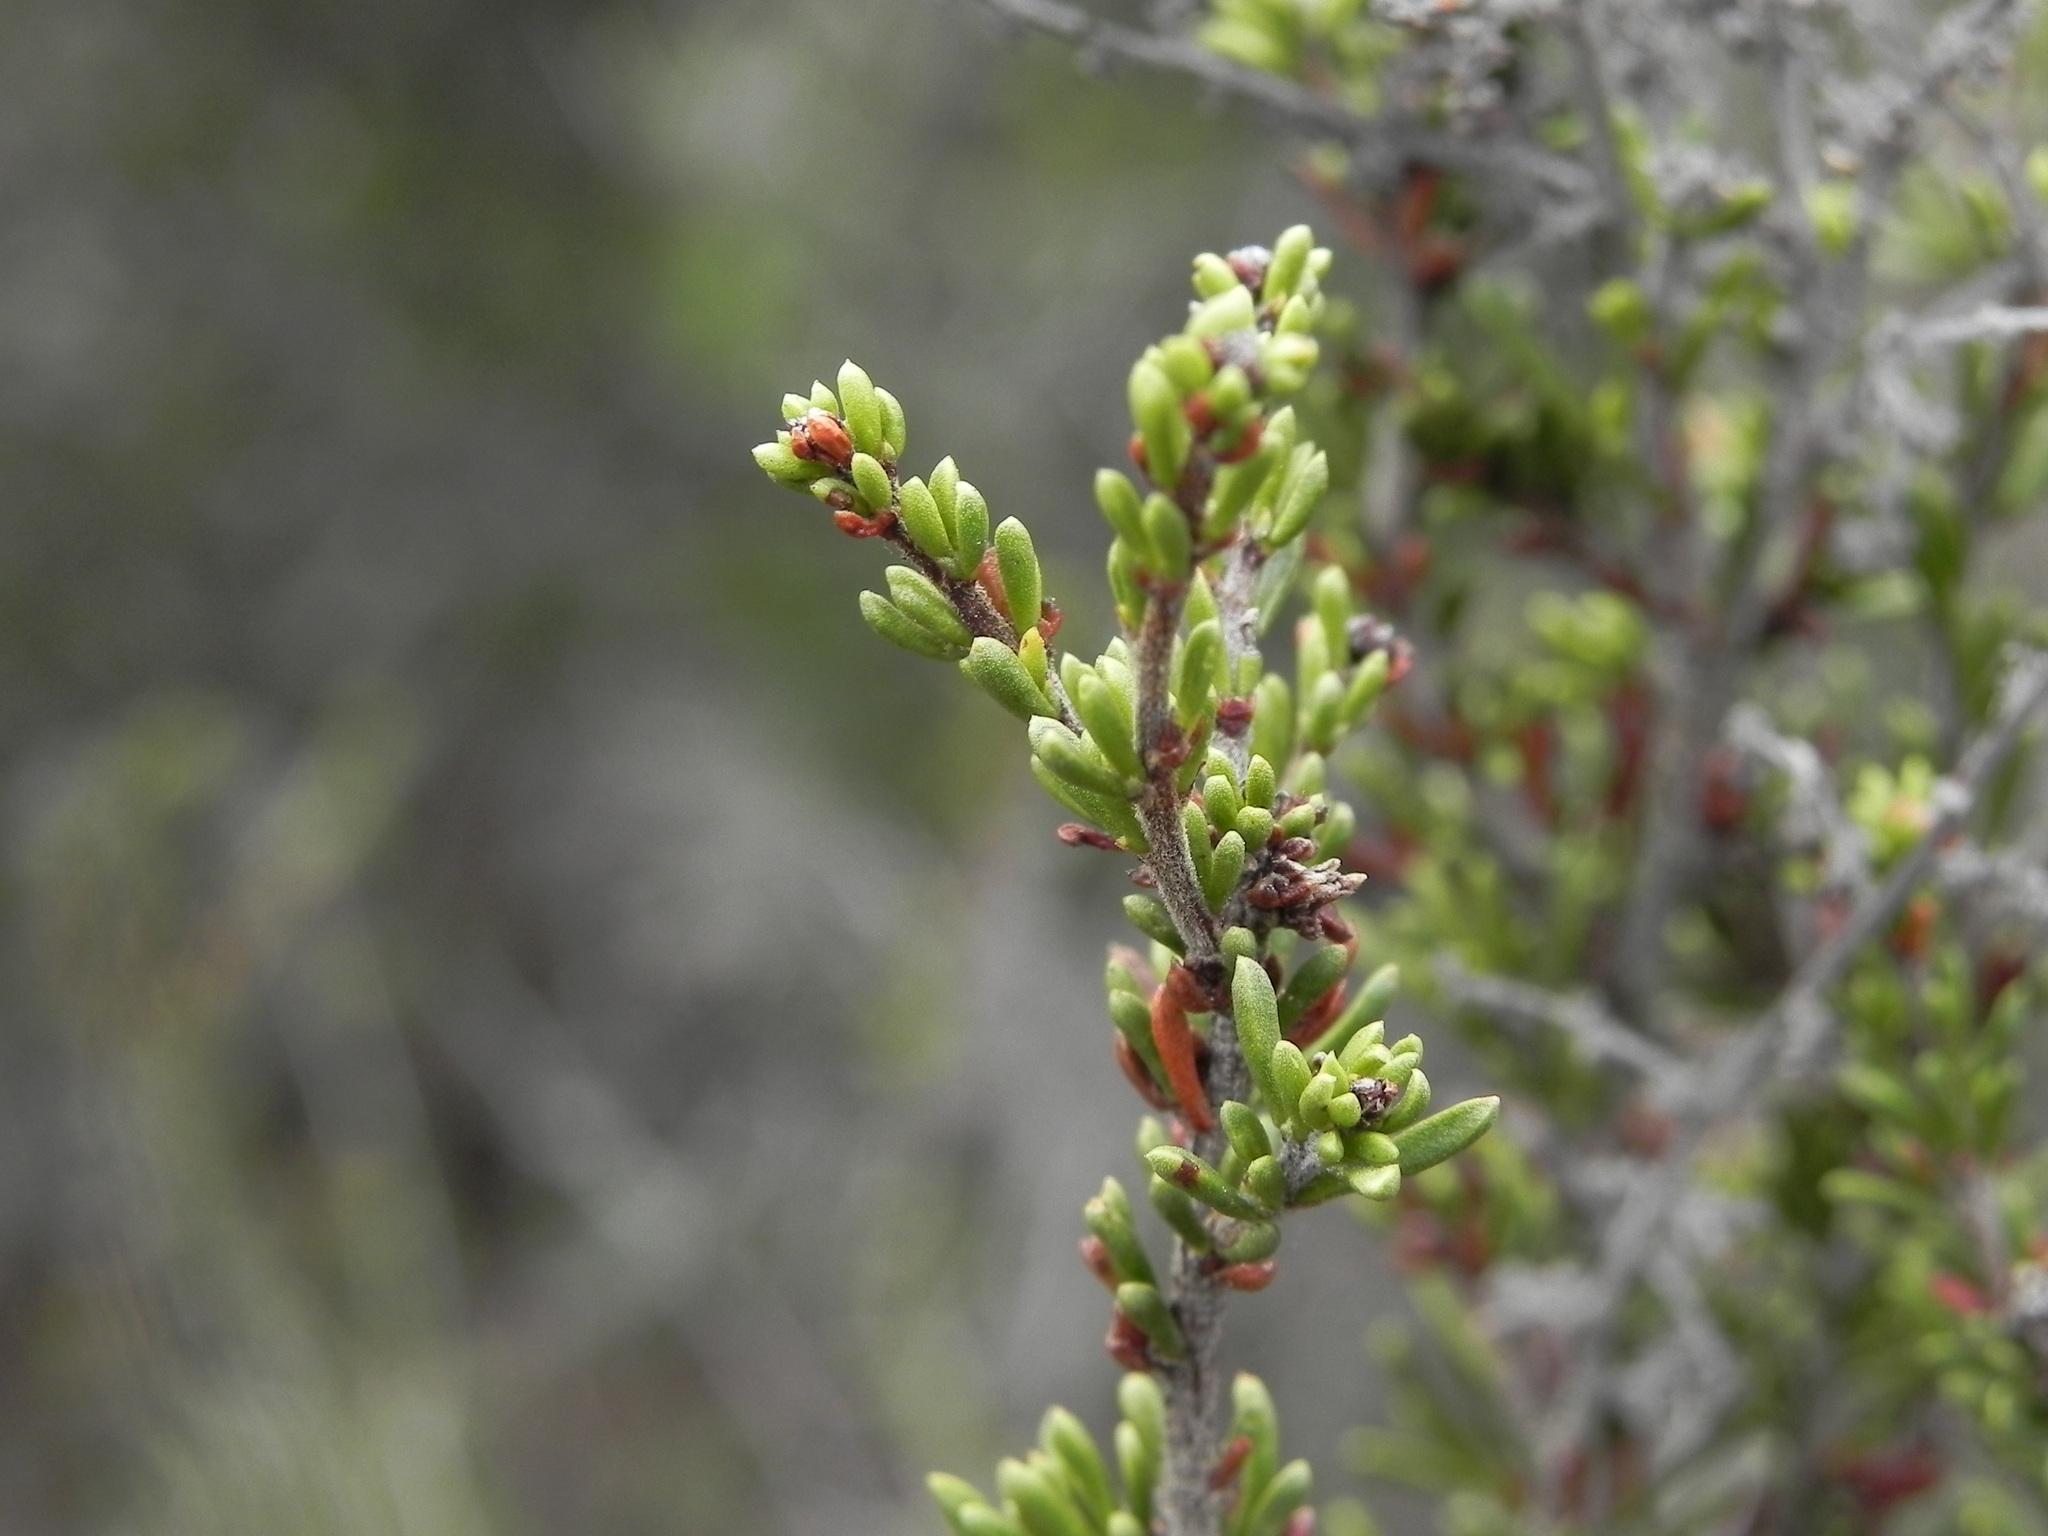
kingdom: Plantae
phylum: Tracheophyta
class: Magnoliopsida
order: Rosales
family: Rosaceae
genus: Adenostoma
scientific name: Adenostoma fasciculatum
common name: Chamise
